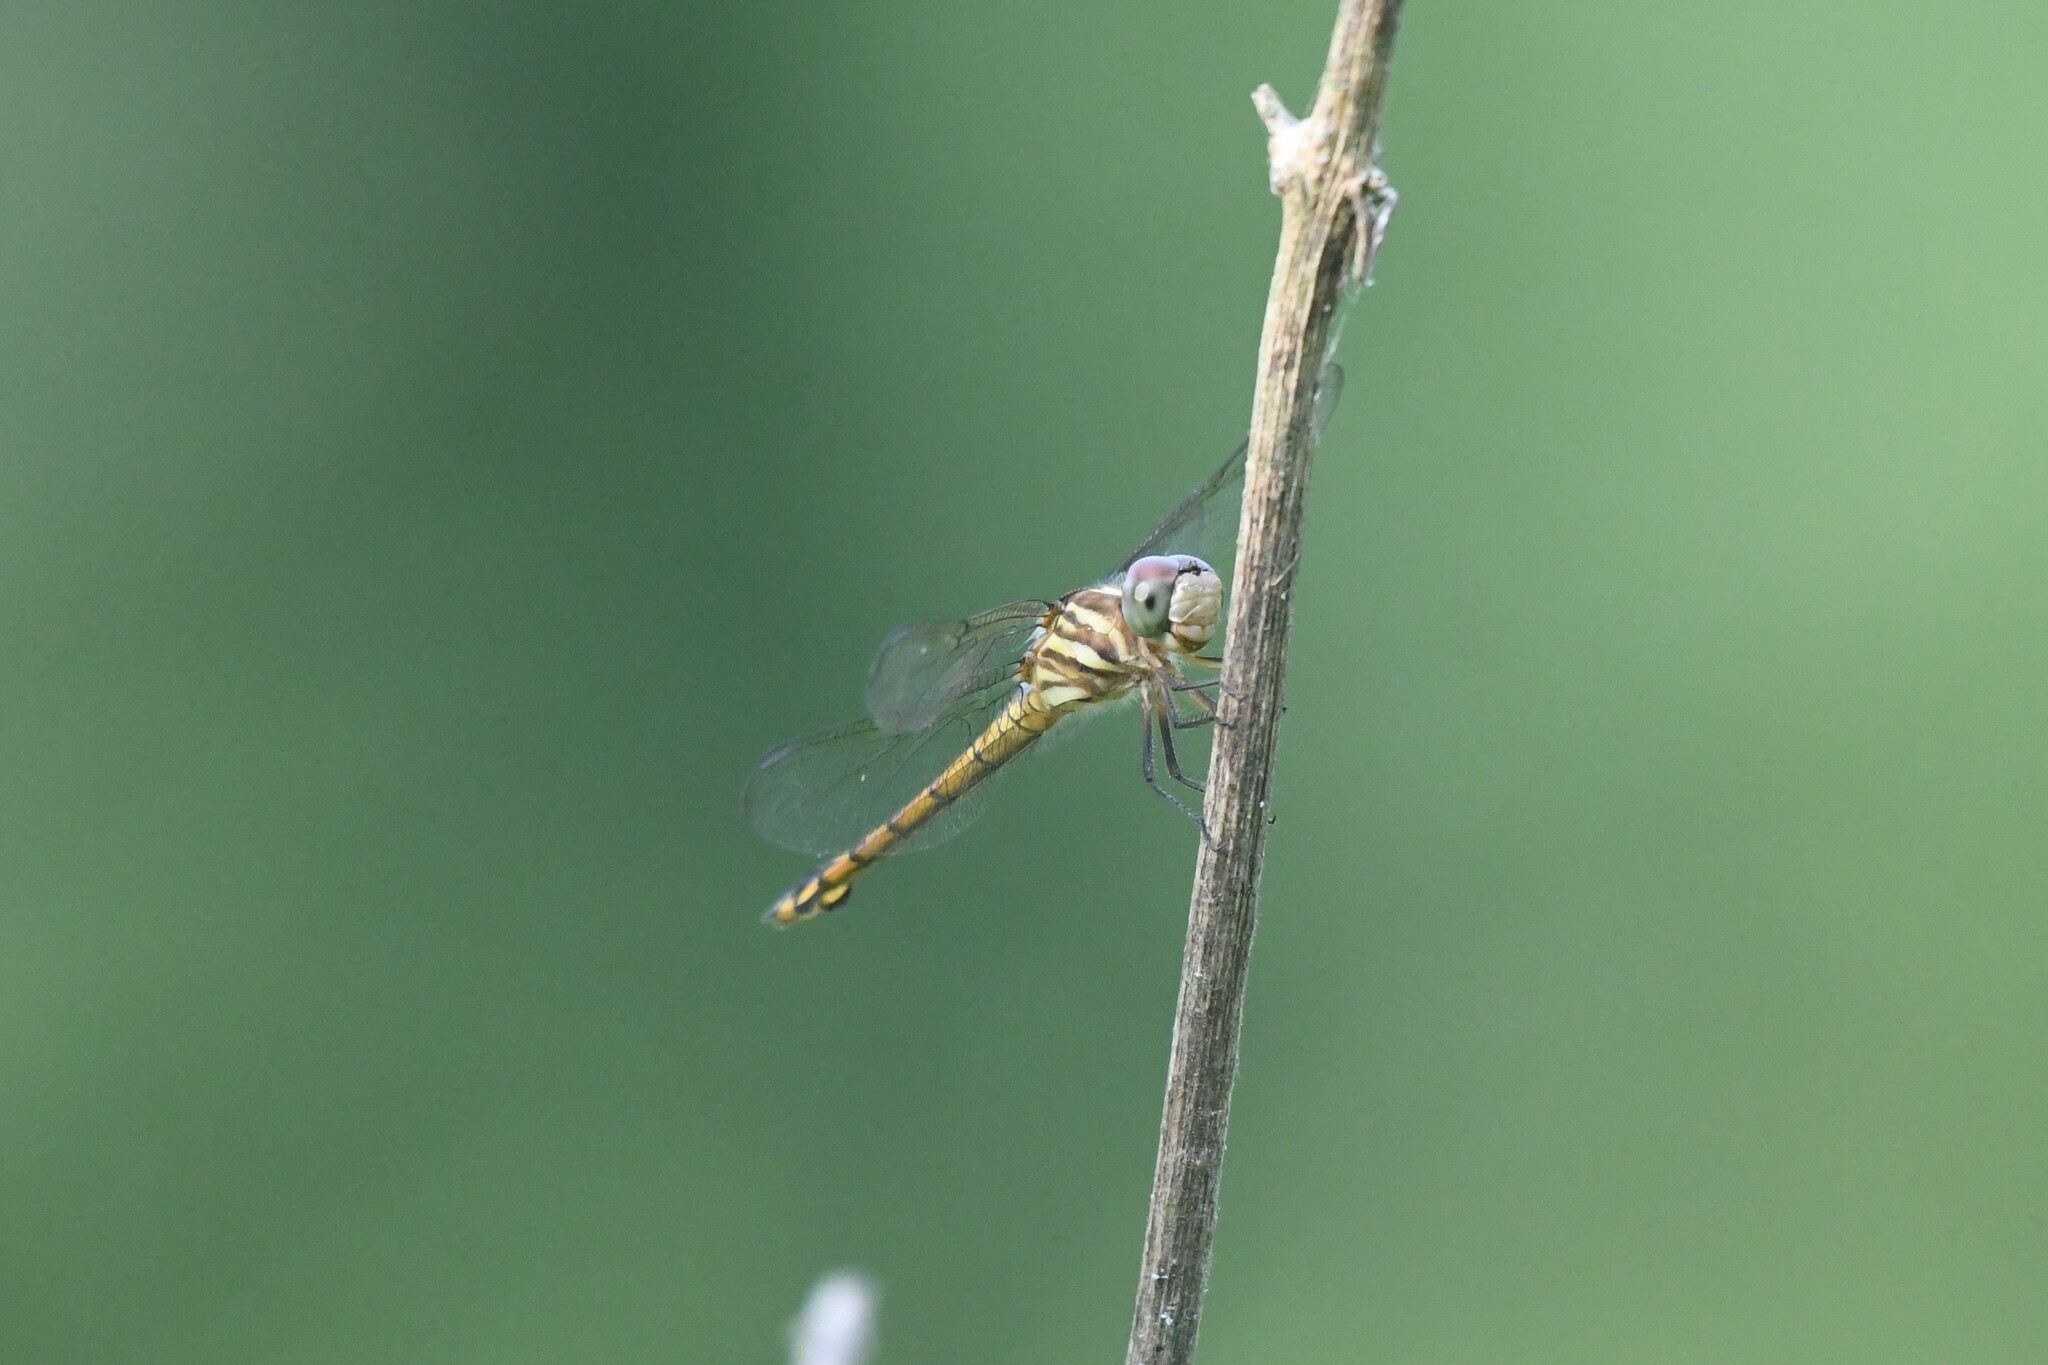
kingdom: Animalia
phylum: Arthropoda
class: Insecta
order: Odonata
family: Libellulidae
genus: Potamarcha
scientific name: Potamarcha congener
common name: Blue chaser
